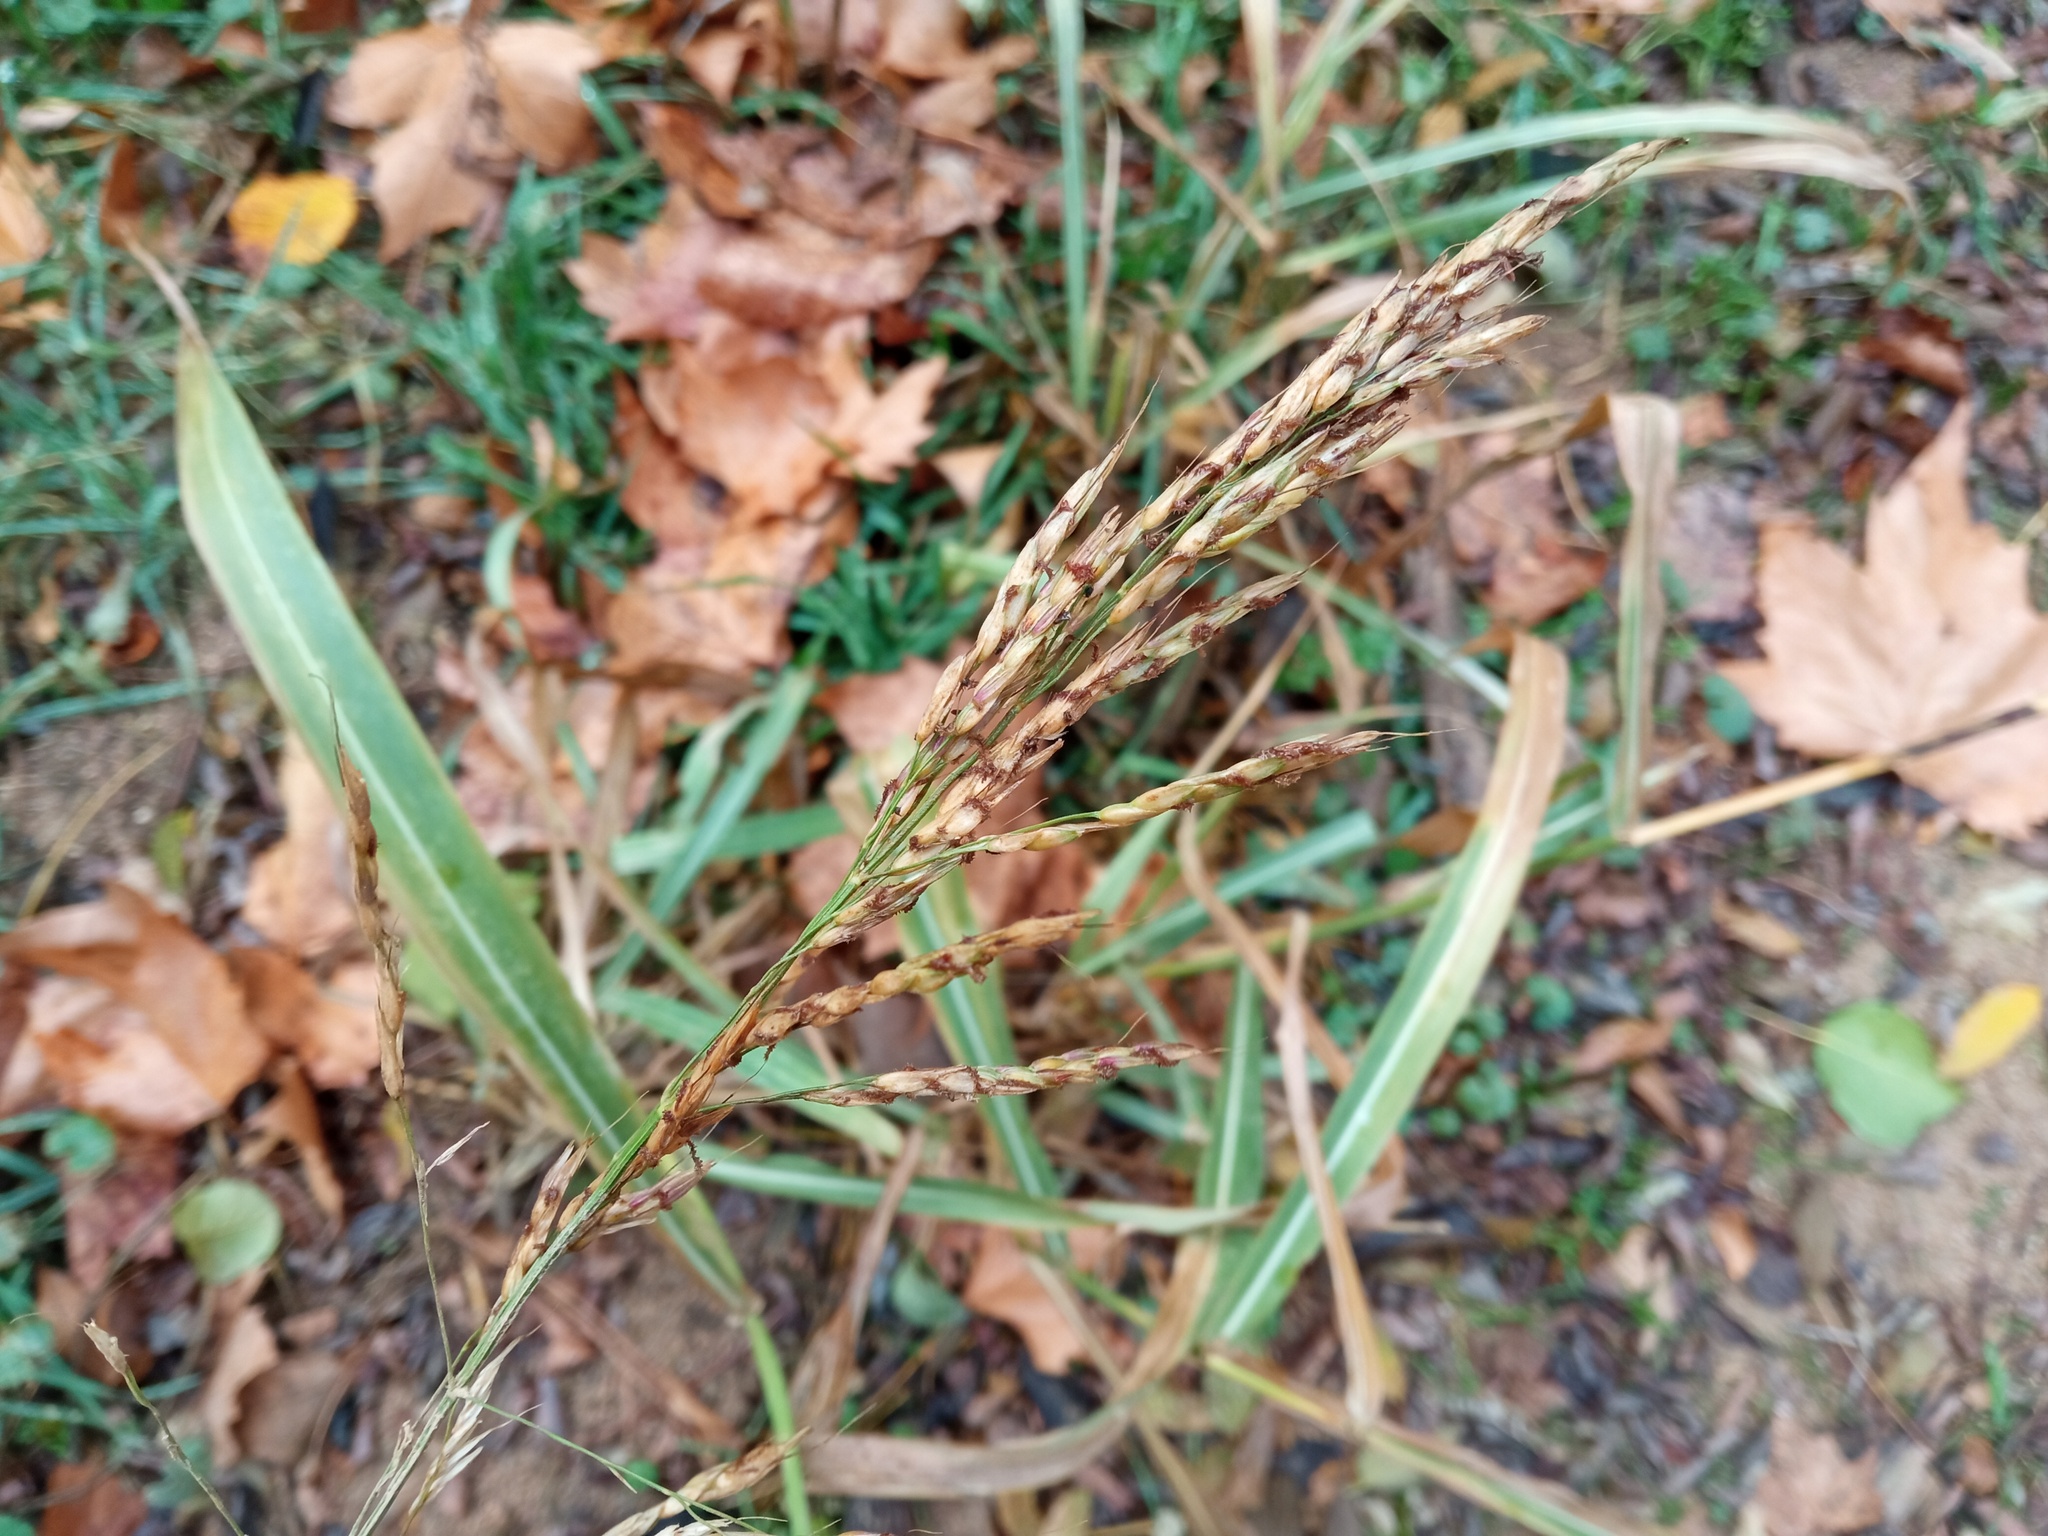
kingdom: Plantae
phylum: Tracheophyta
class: Liliopsida
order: Poales
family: Poaceae
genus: Sorghum
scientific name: Sorghum halepense
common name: Johnson-grass
